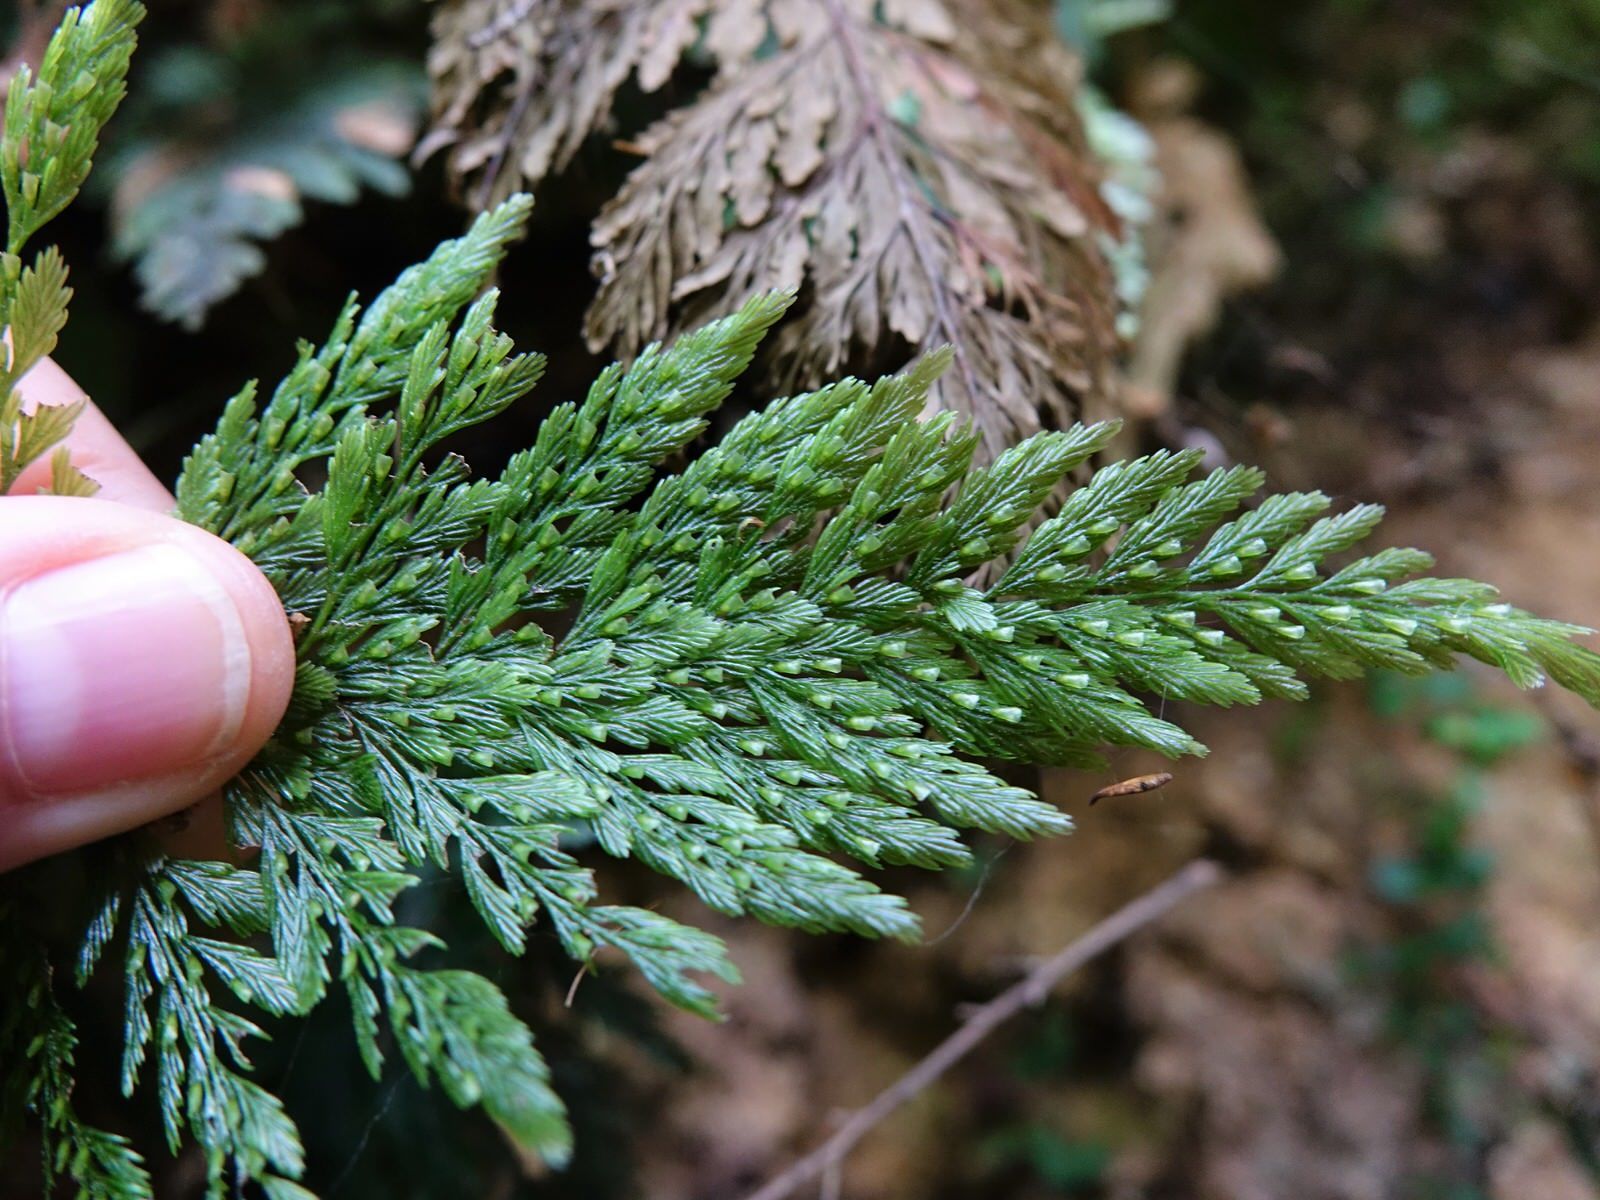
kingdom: Plantae
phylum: Tracheophyta
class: Polypodiopsida
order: Hymenophyllales
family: Hymenophyllaceae
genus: Abrodictyum
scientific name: Abrodictyum elongatum
